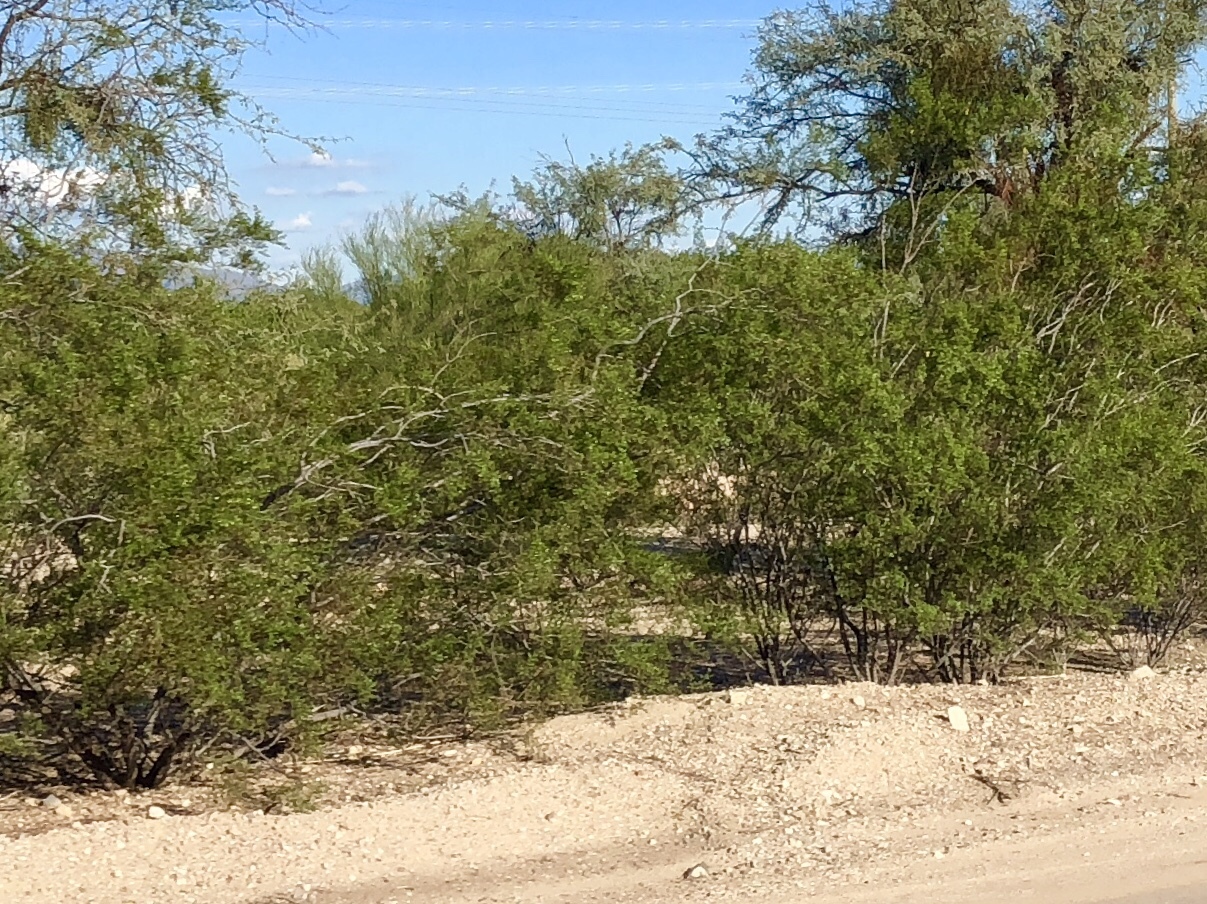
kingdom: Plantae
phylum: Tracheophyta
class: Magnoliopsida
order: Zygophyllales
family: Zygophyllaceae
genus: Larrea
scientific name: Larrea tridentata
